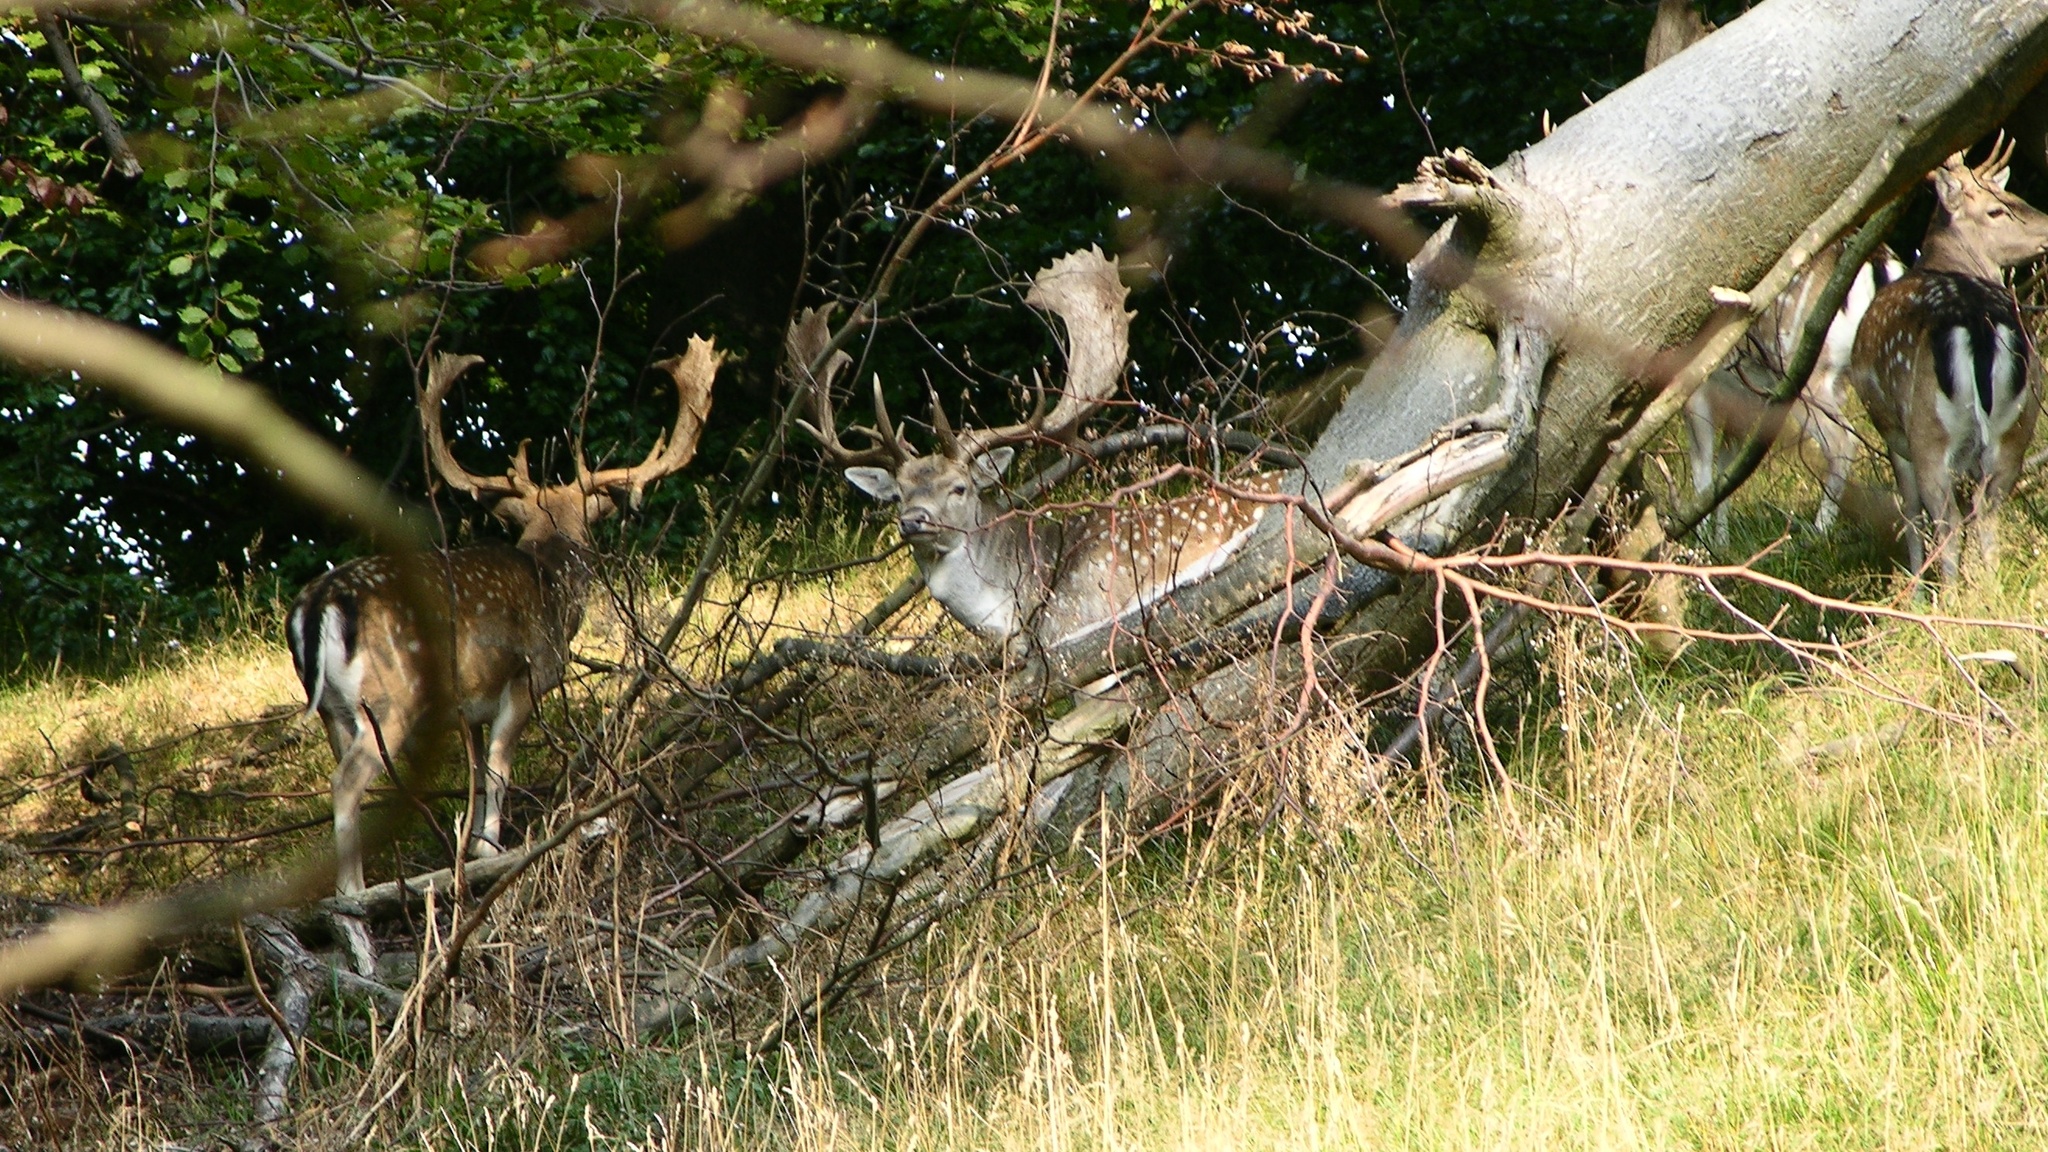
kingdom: Animalia
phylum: Chordata
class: Mammalia
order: Artiodactyla
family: Cervidae
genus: Dama
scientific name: Dama dama
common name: Fallow deer
